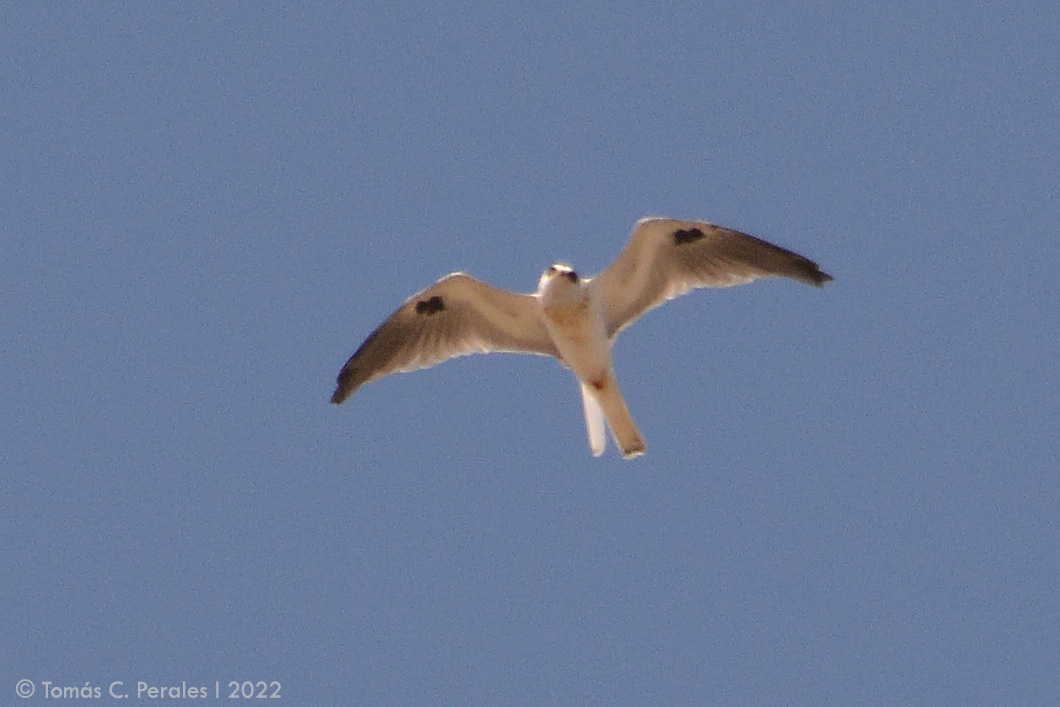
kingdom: Animalia
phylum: Chordata
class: Aves
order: Accipitriformes
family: Accipitridae
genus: Elanus
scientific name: Elanus leucurus
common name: White-tailed kite
